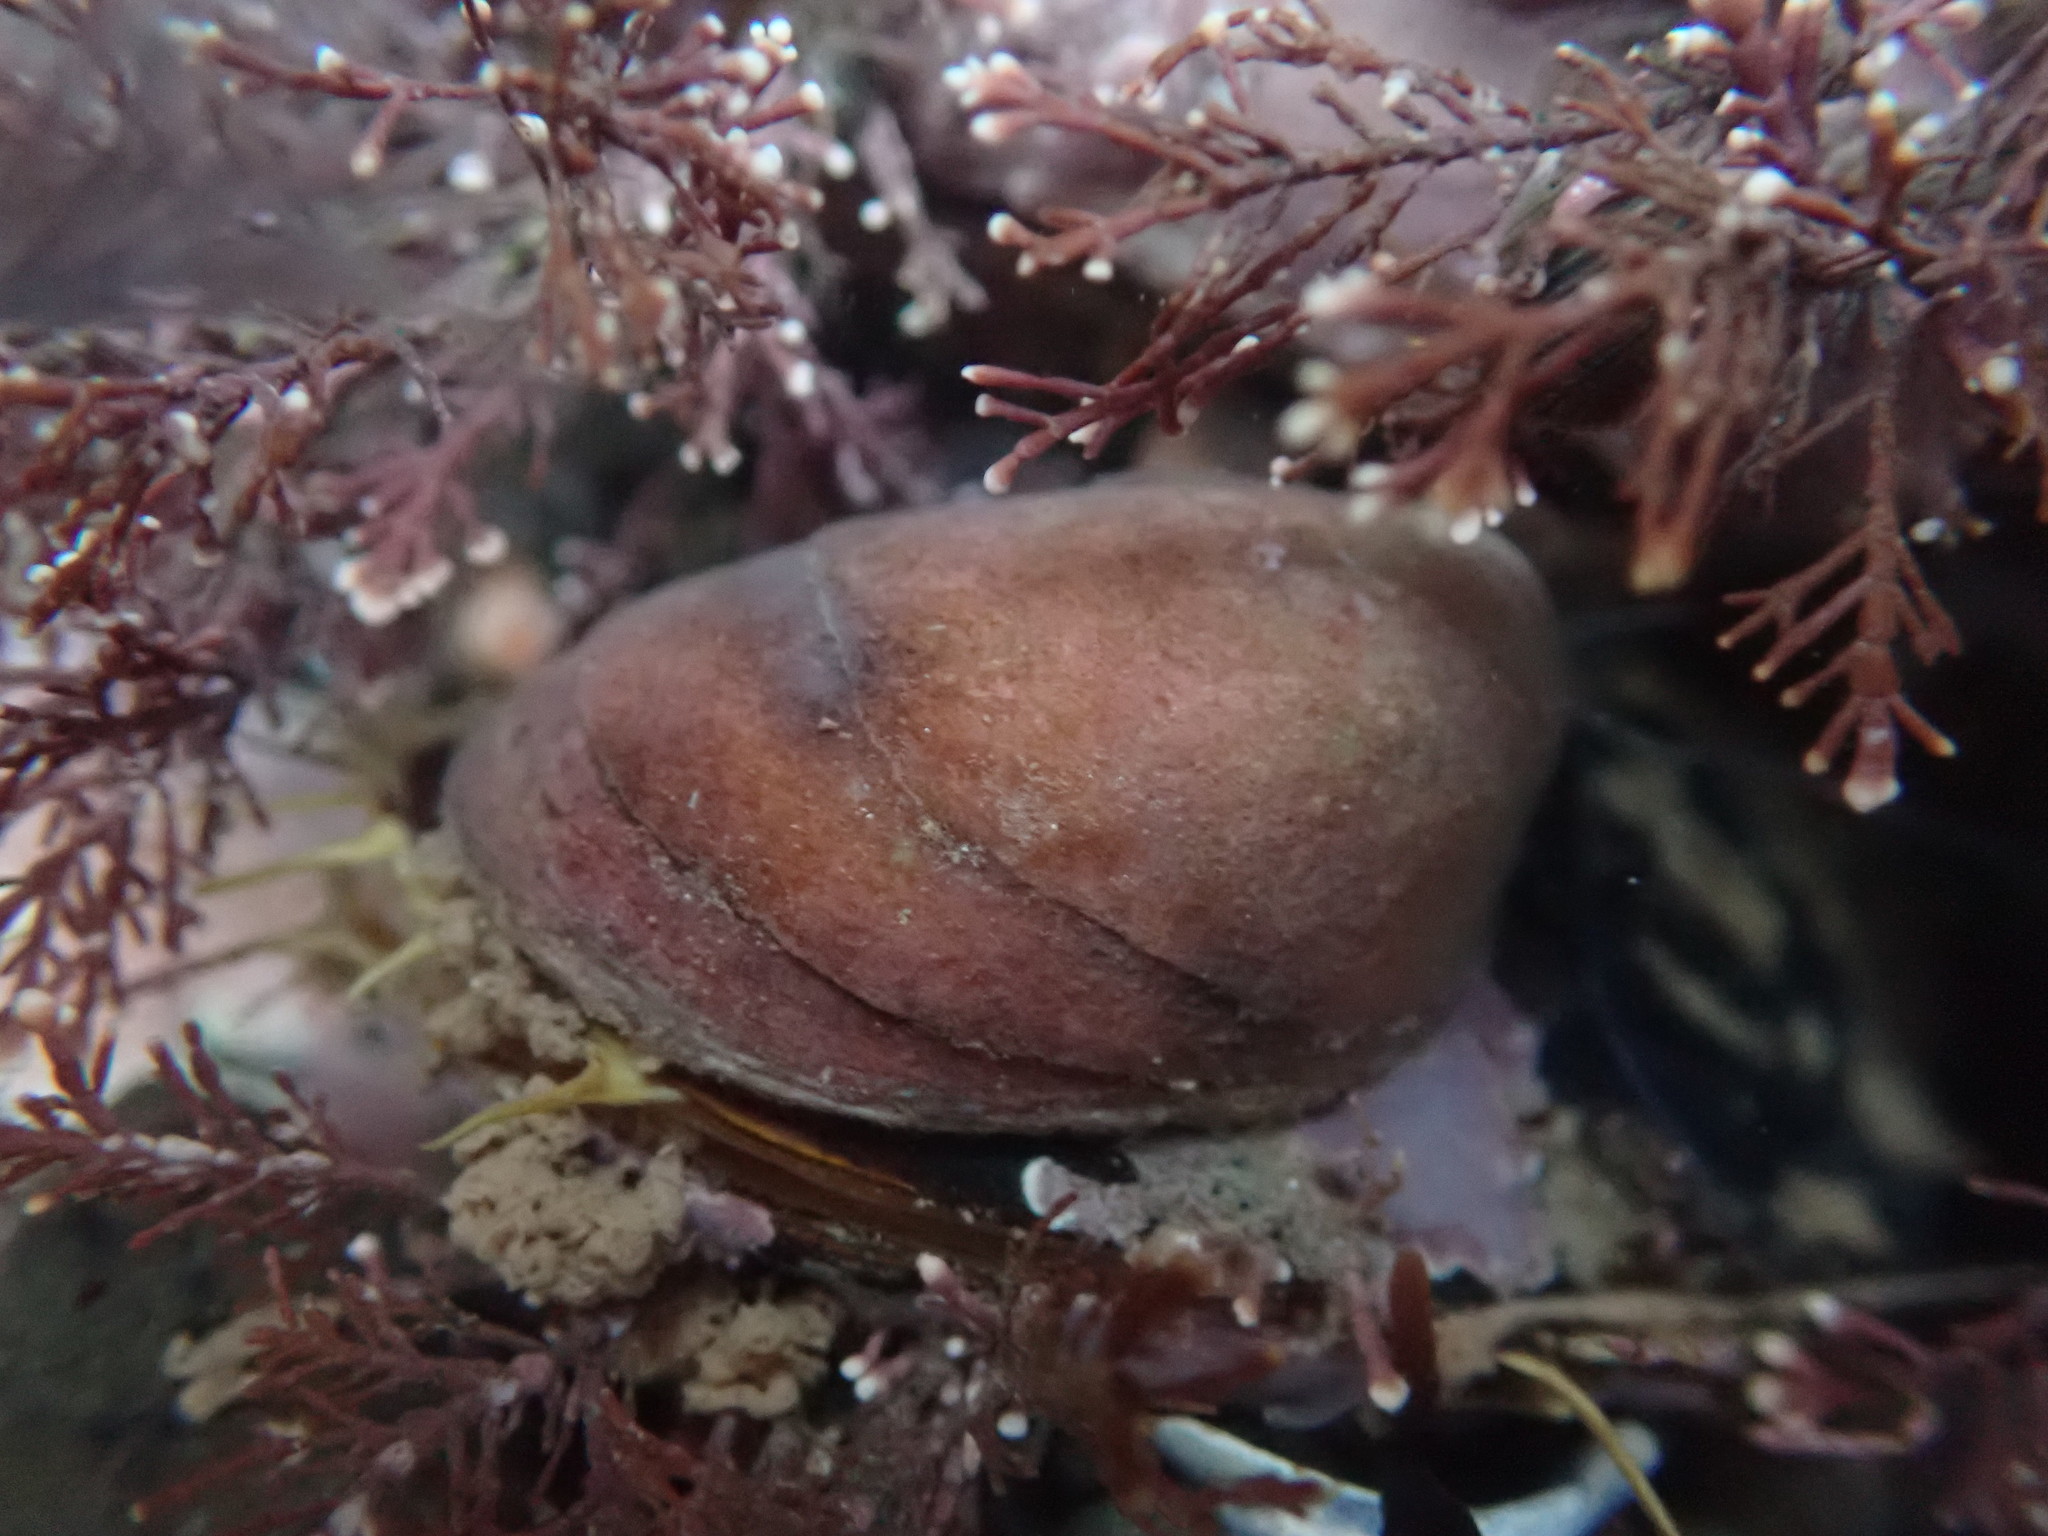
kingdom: Animalia
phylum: Mollusca
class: Gastropoda
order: Littorinimorpha
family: Calyptraeidae
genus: Crepidula
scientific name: Crepidula fornicata
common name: Slipper limpet
